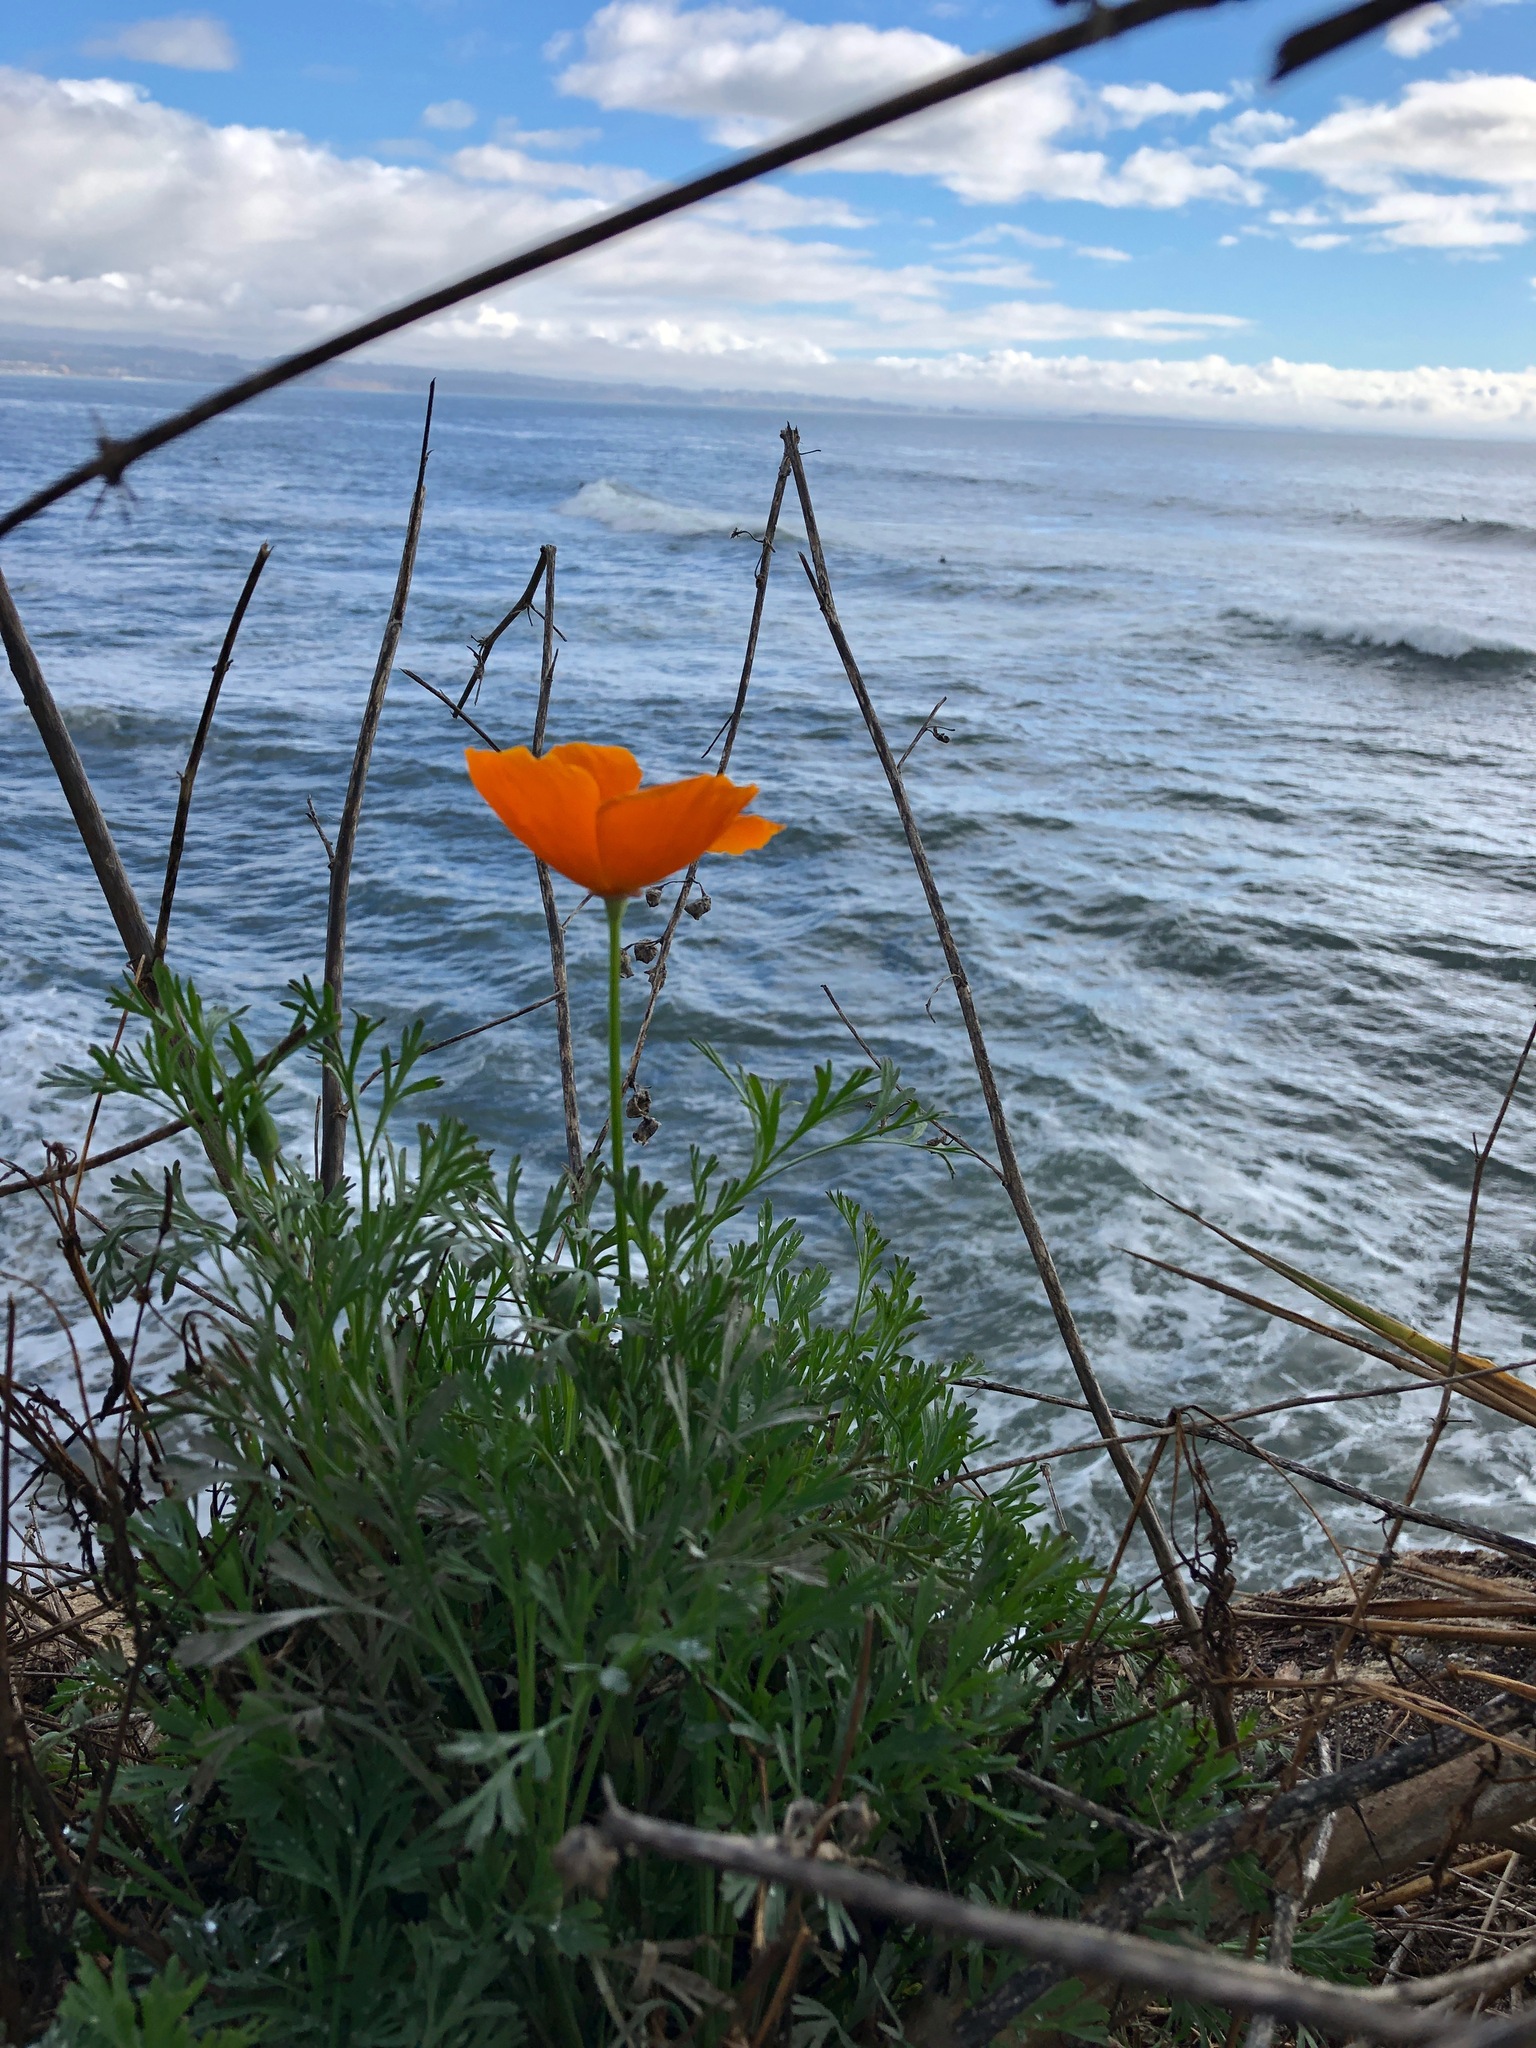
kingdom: Plantae
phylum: Tracheophyta
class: Magnoliopsida
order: Ranunculales
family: Papaveraceae
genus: Eschscholzia
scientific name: Eschscholzia californica
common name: California poppy
